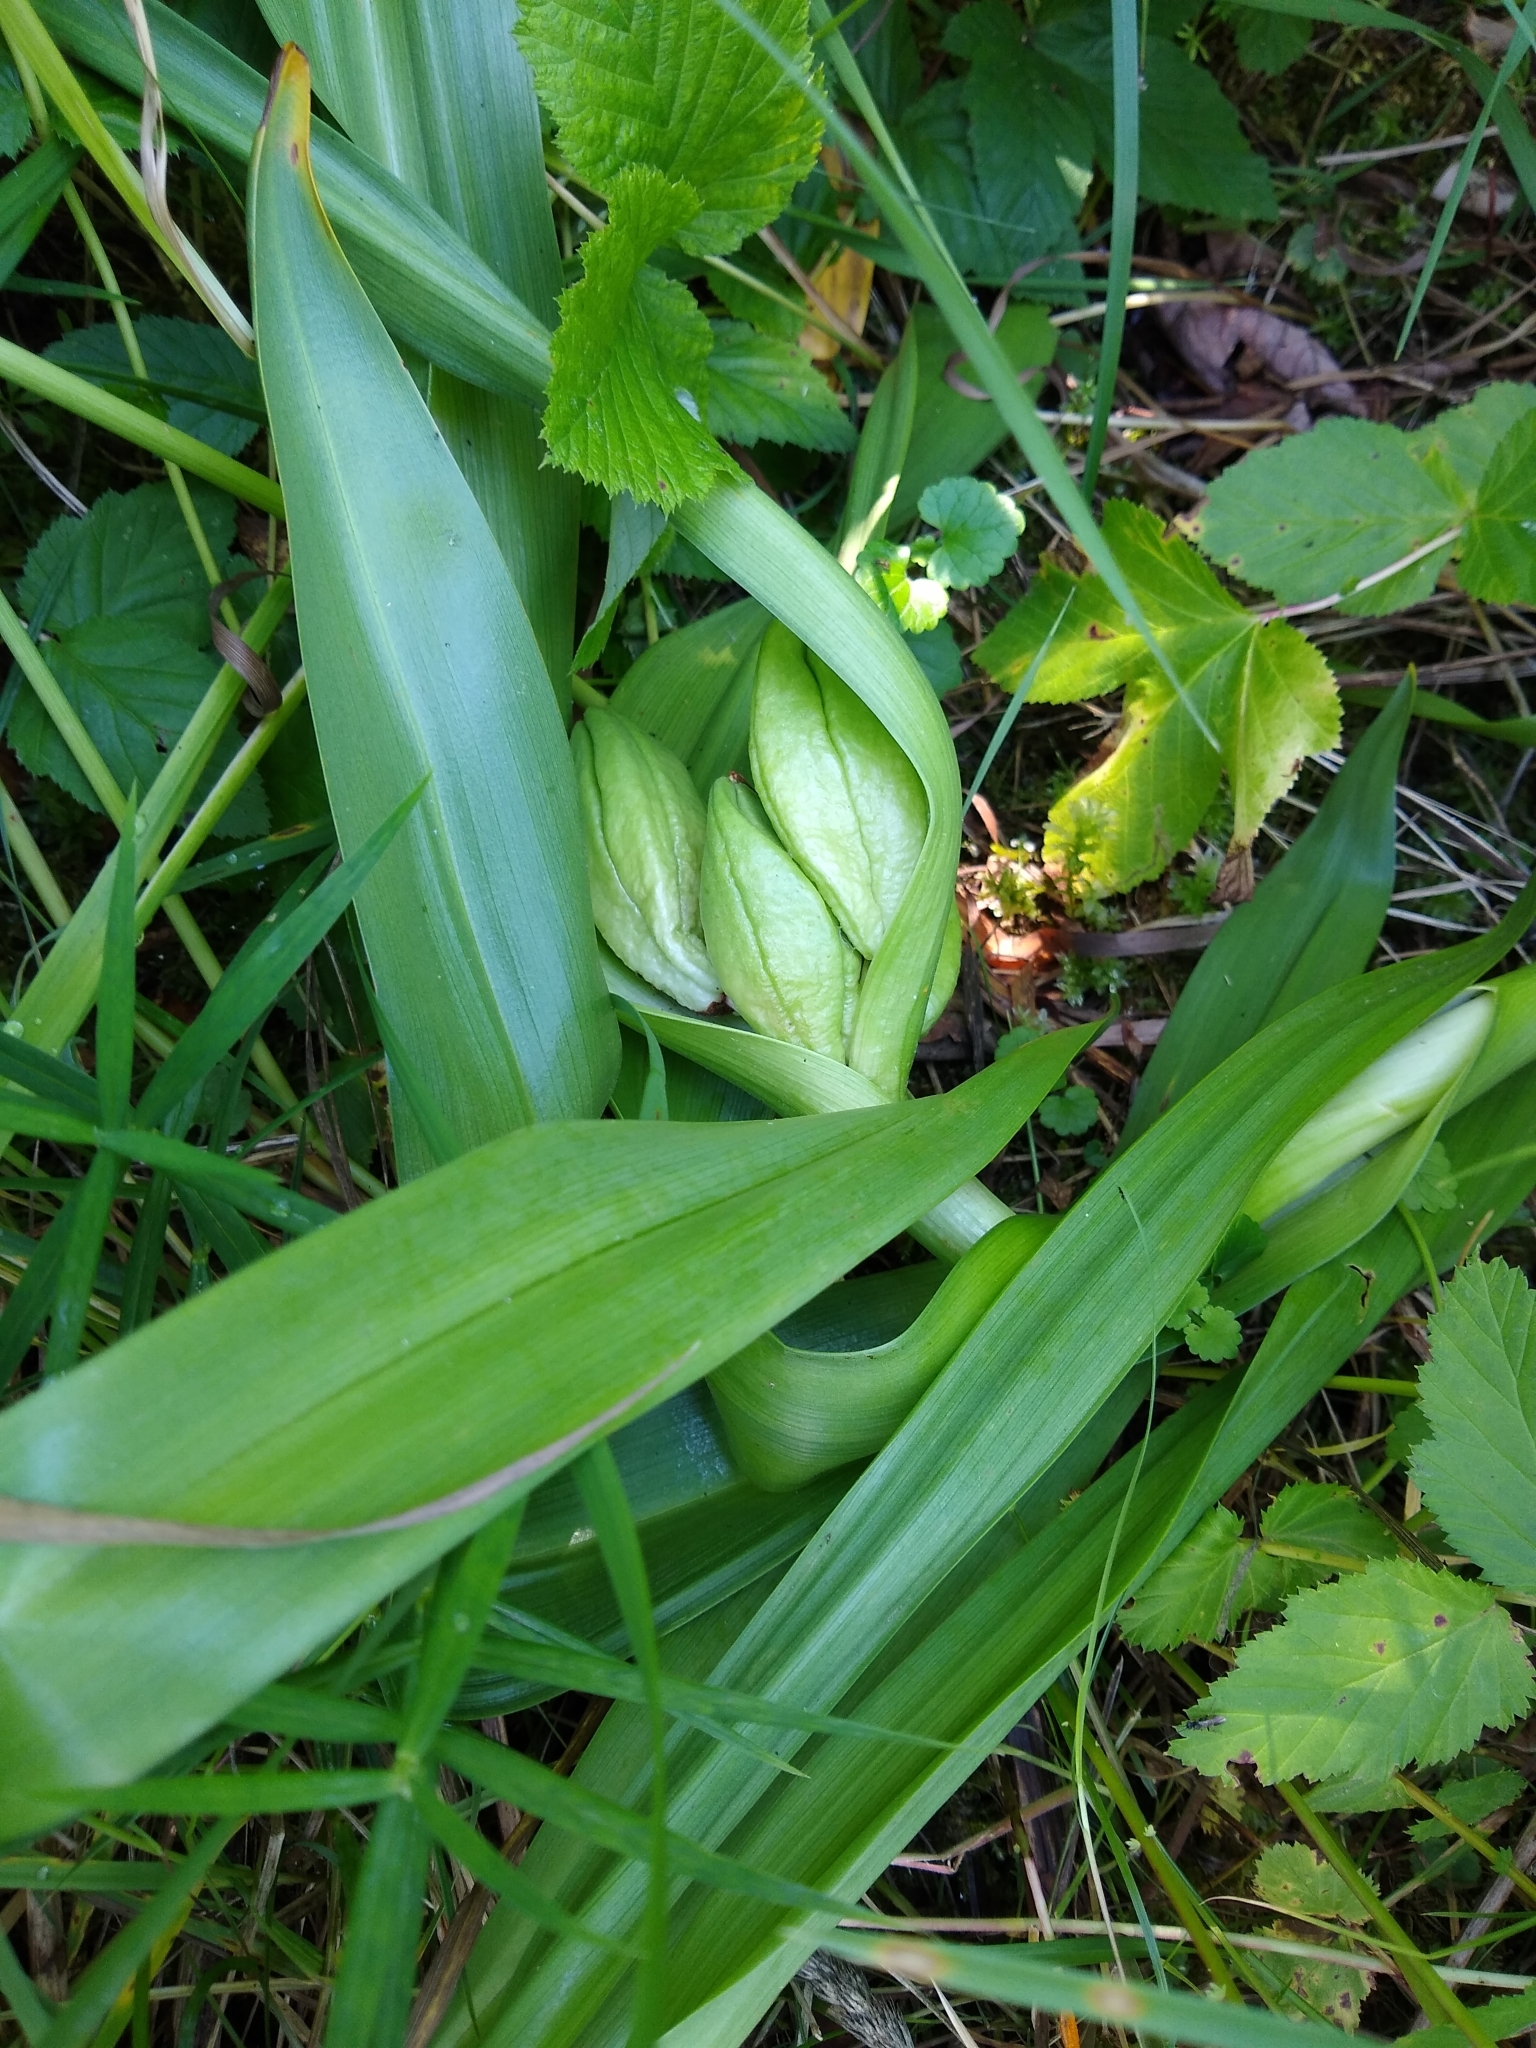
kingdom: Plantae
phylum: Tracheophyta
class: Liliopsida
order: Liliales
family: Colchicaceae
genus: Colchicum
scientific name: Colchicum autumnale
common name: Autumn crocus
